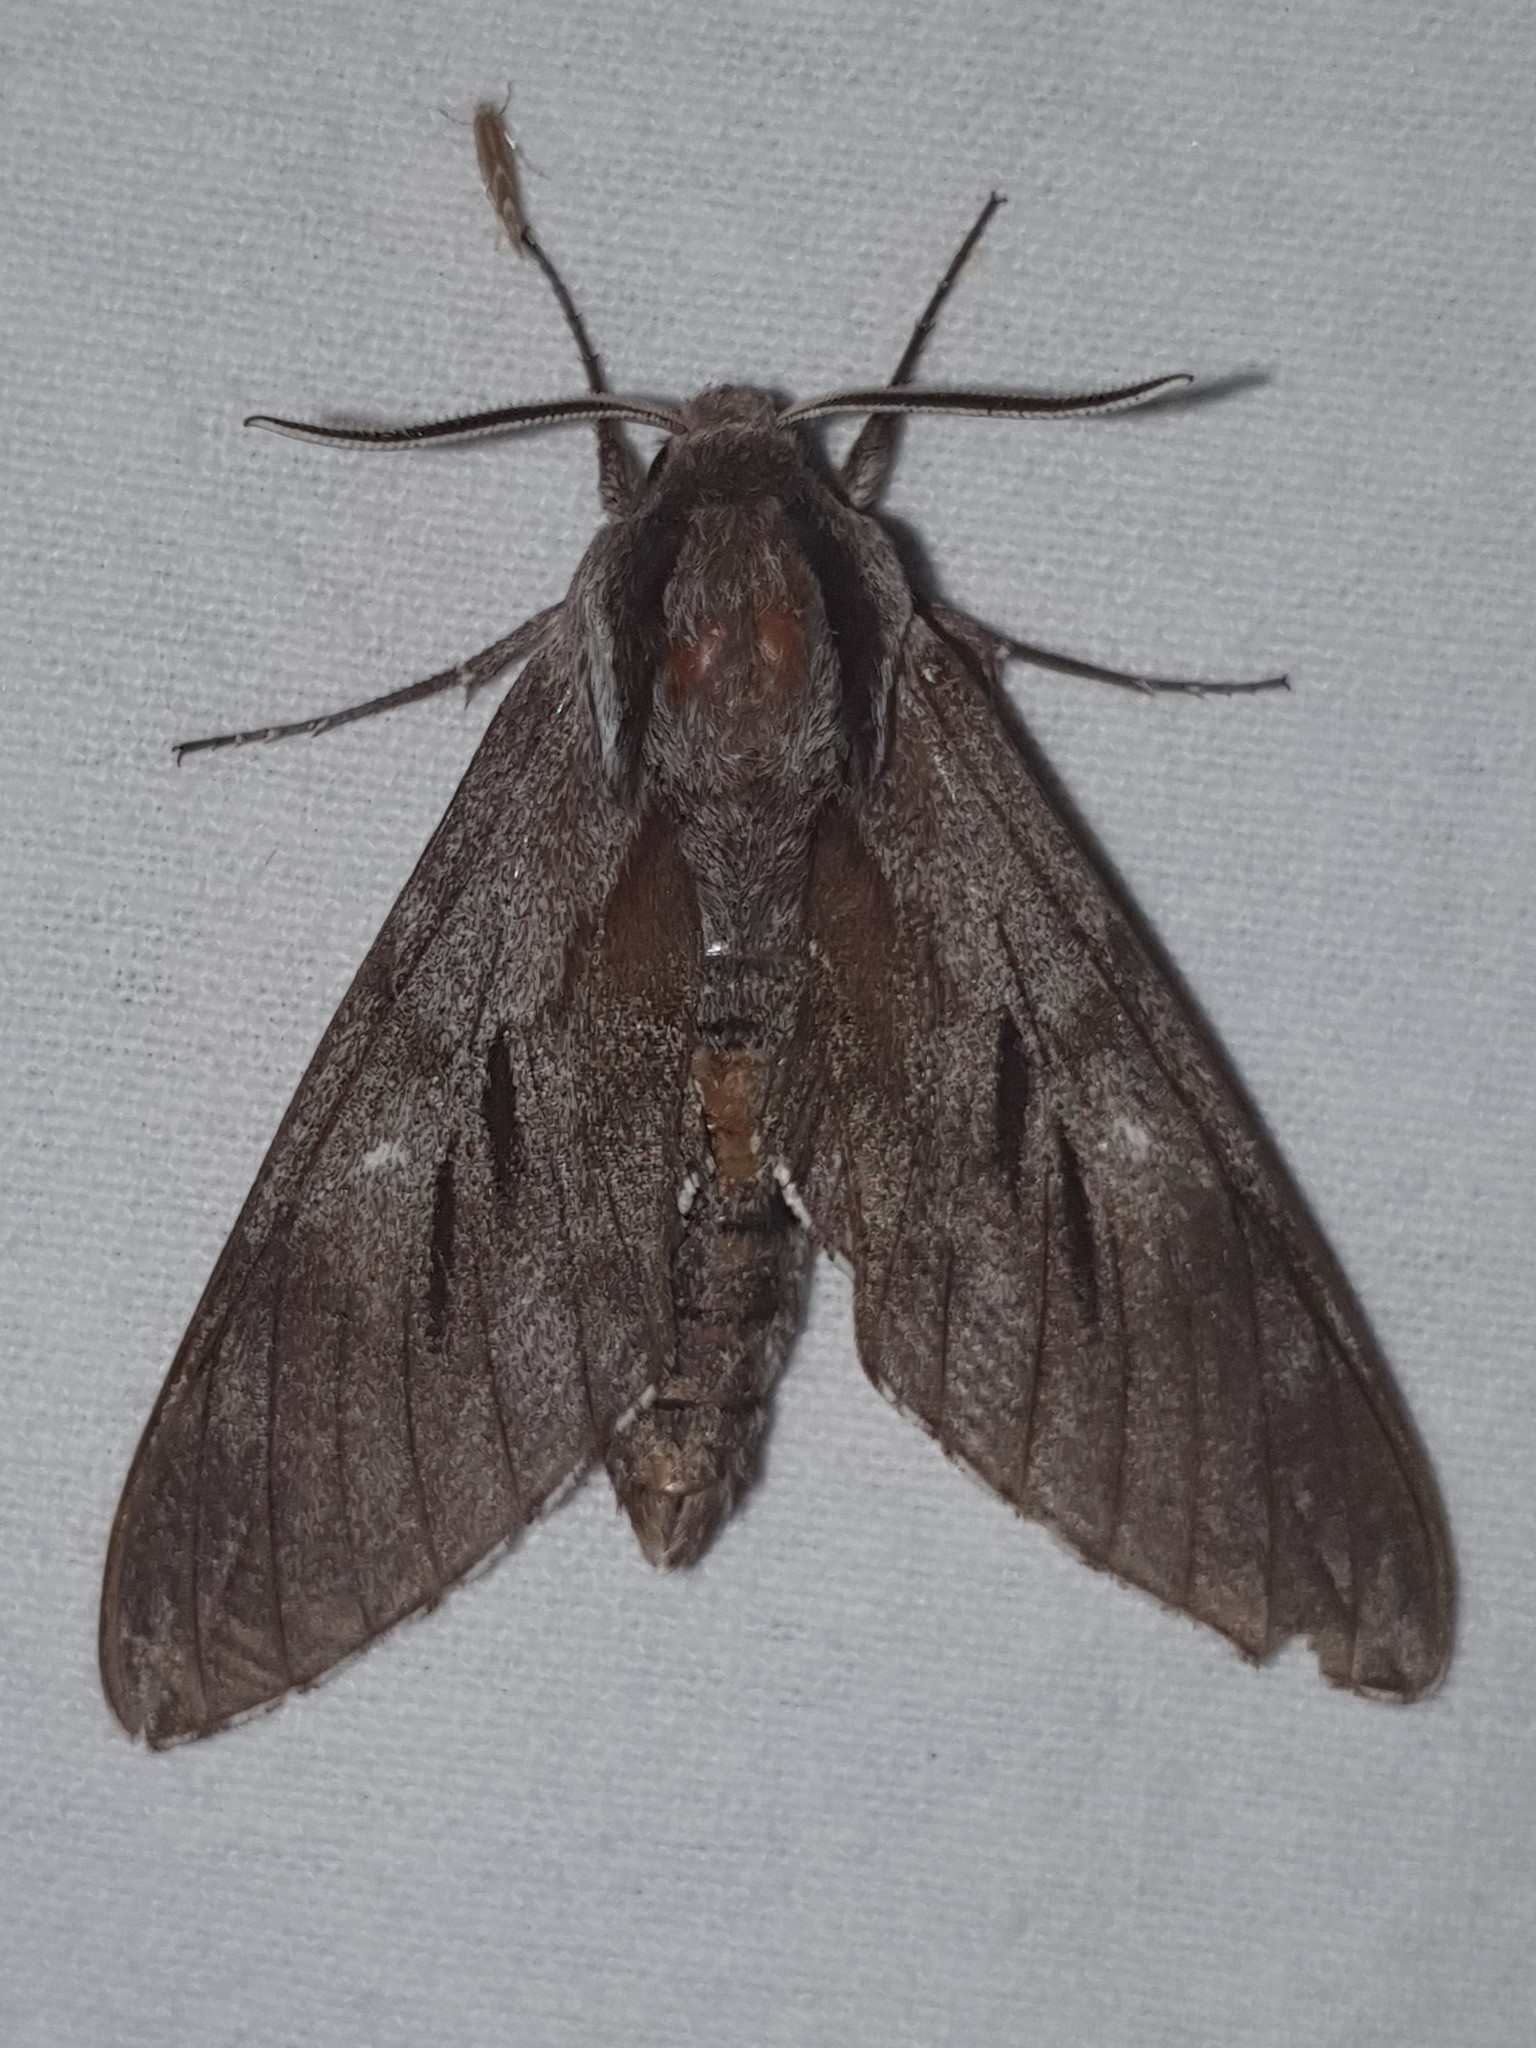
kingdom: Animalia
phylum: Arthropoda
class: Insecta
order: Lepidoptera
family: Sphingidae
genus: Sphinx
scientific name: Sphinx maurorum
